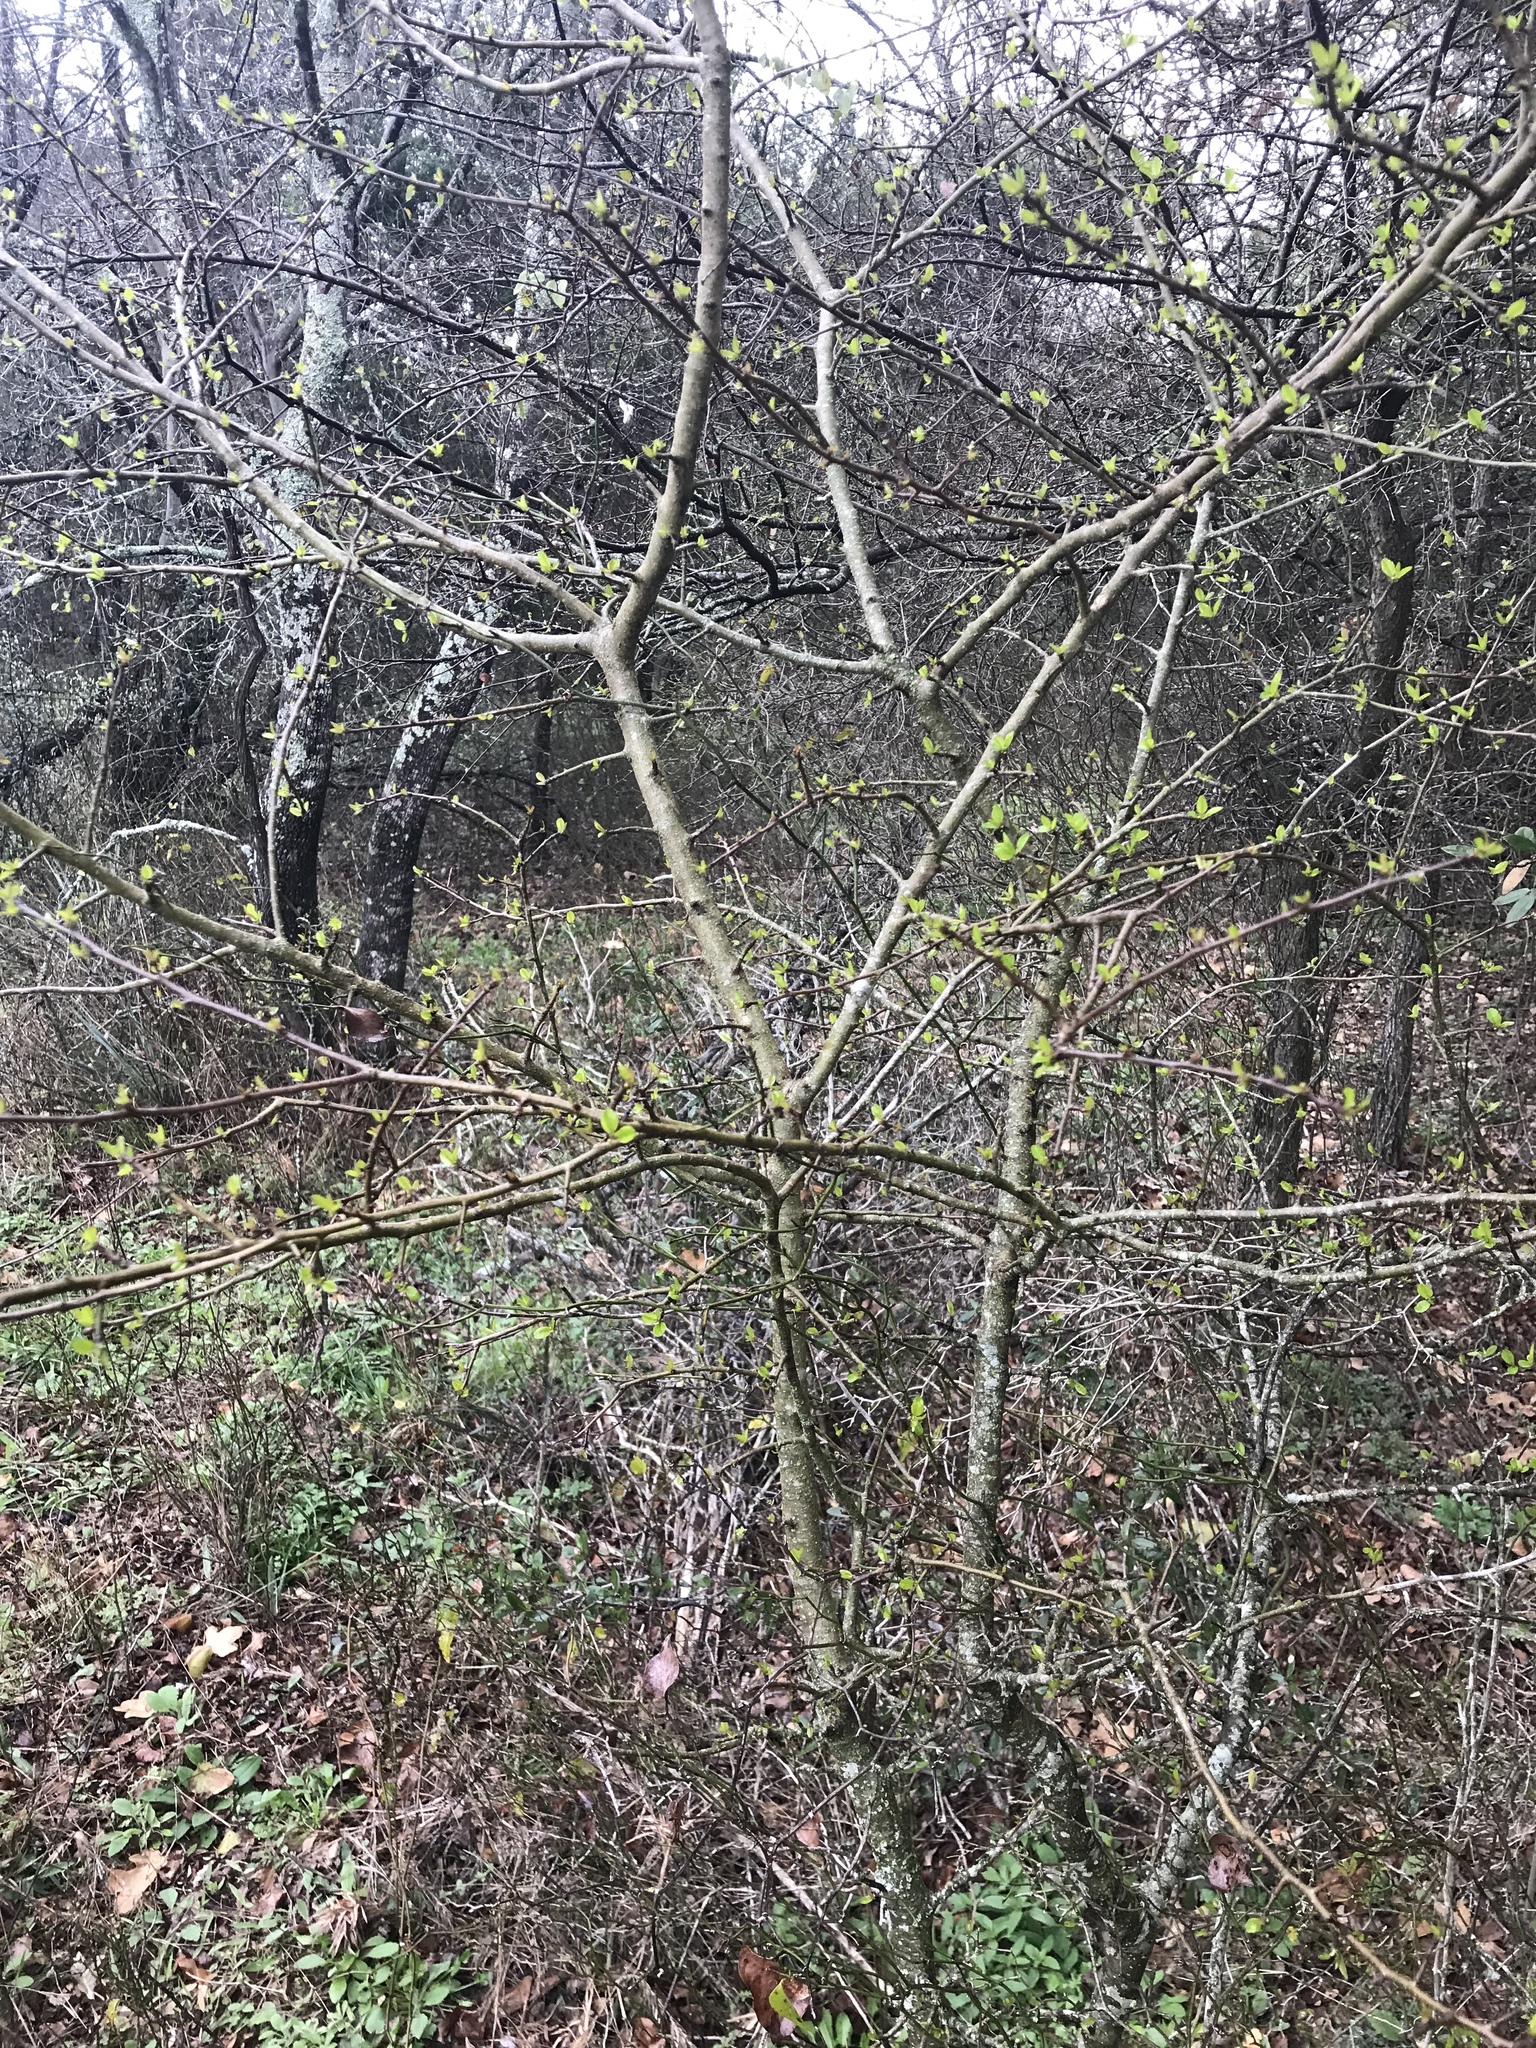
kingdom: Plantae
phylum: Tracheophyta
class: Magnoliopsida
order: Aquifoliales
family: Aquifoliaceae
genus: Ilex
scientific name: Ilex decidua
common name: Possum-haw
